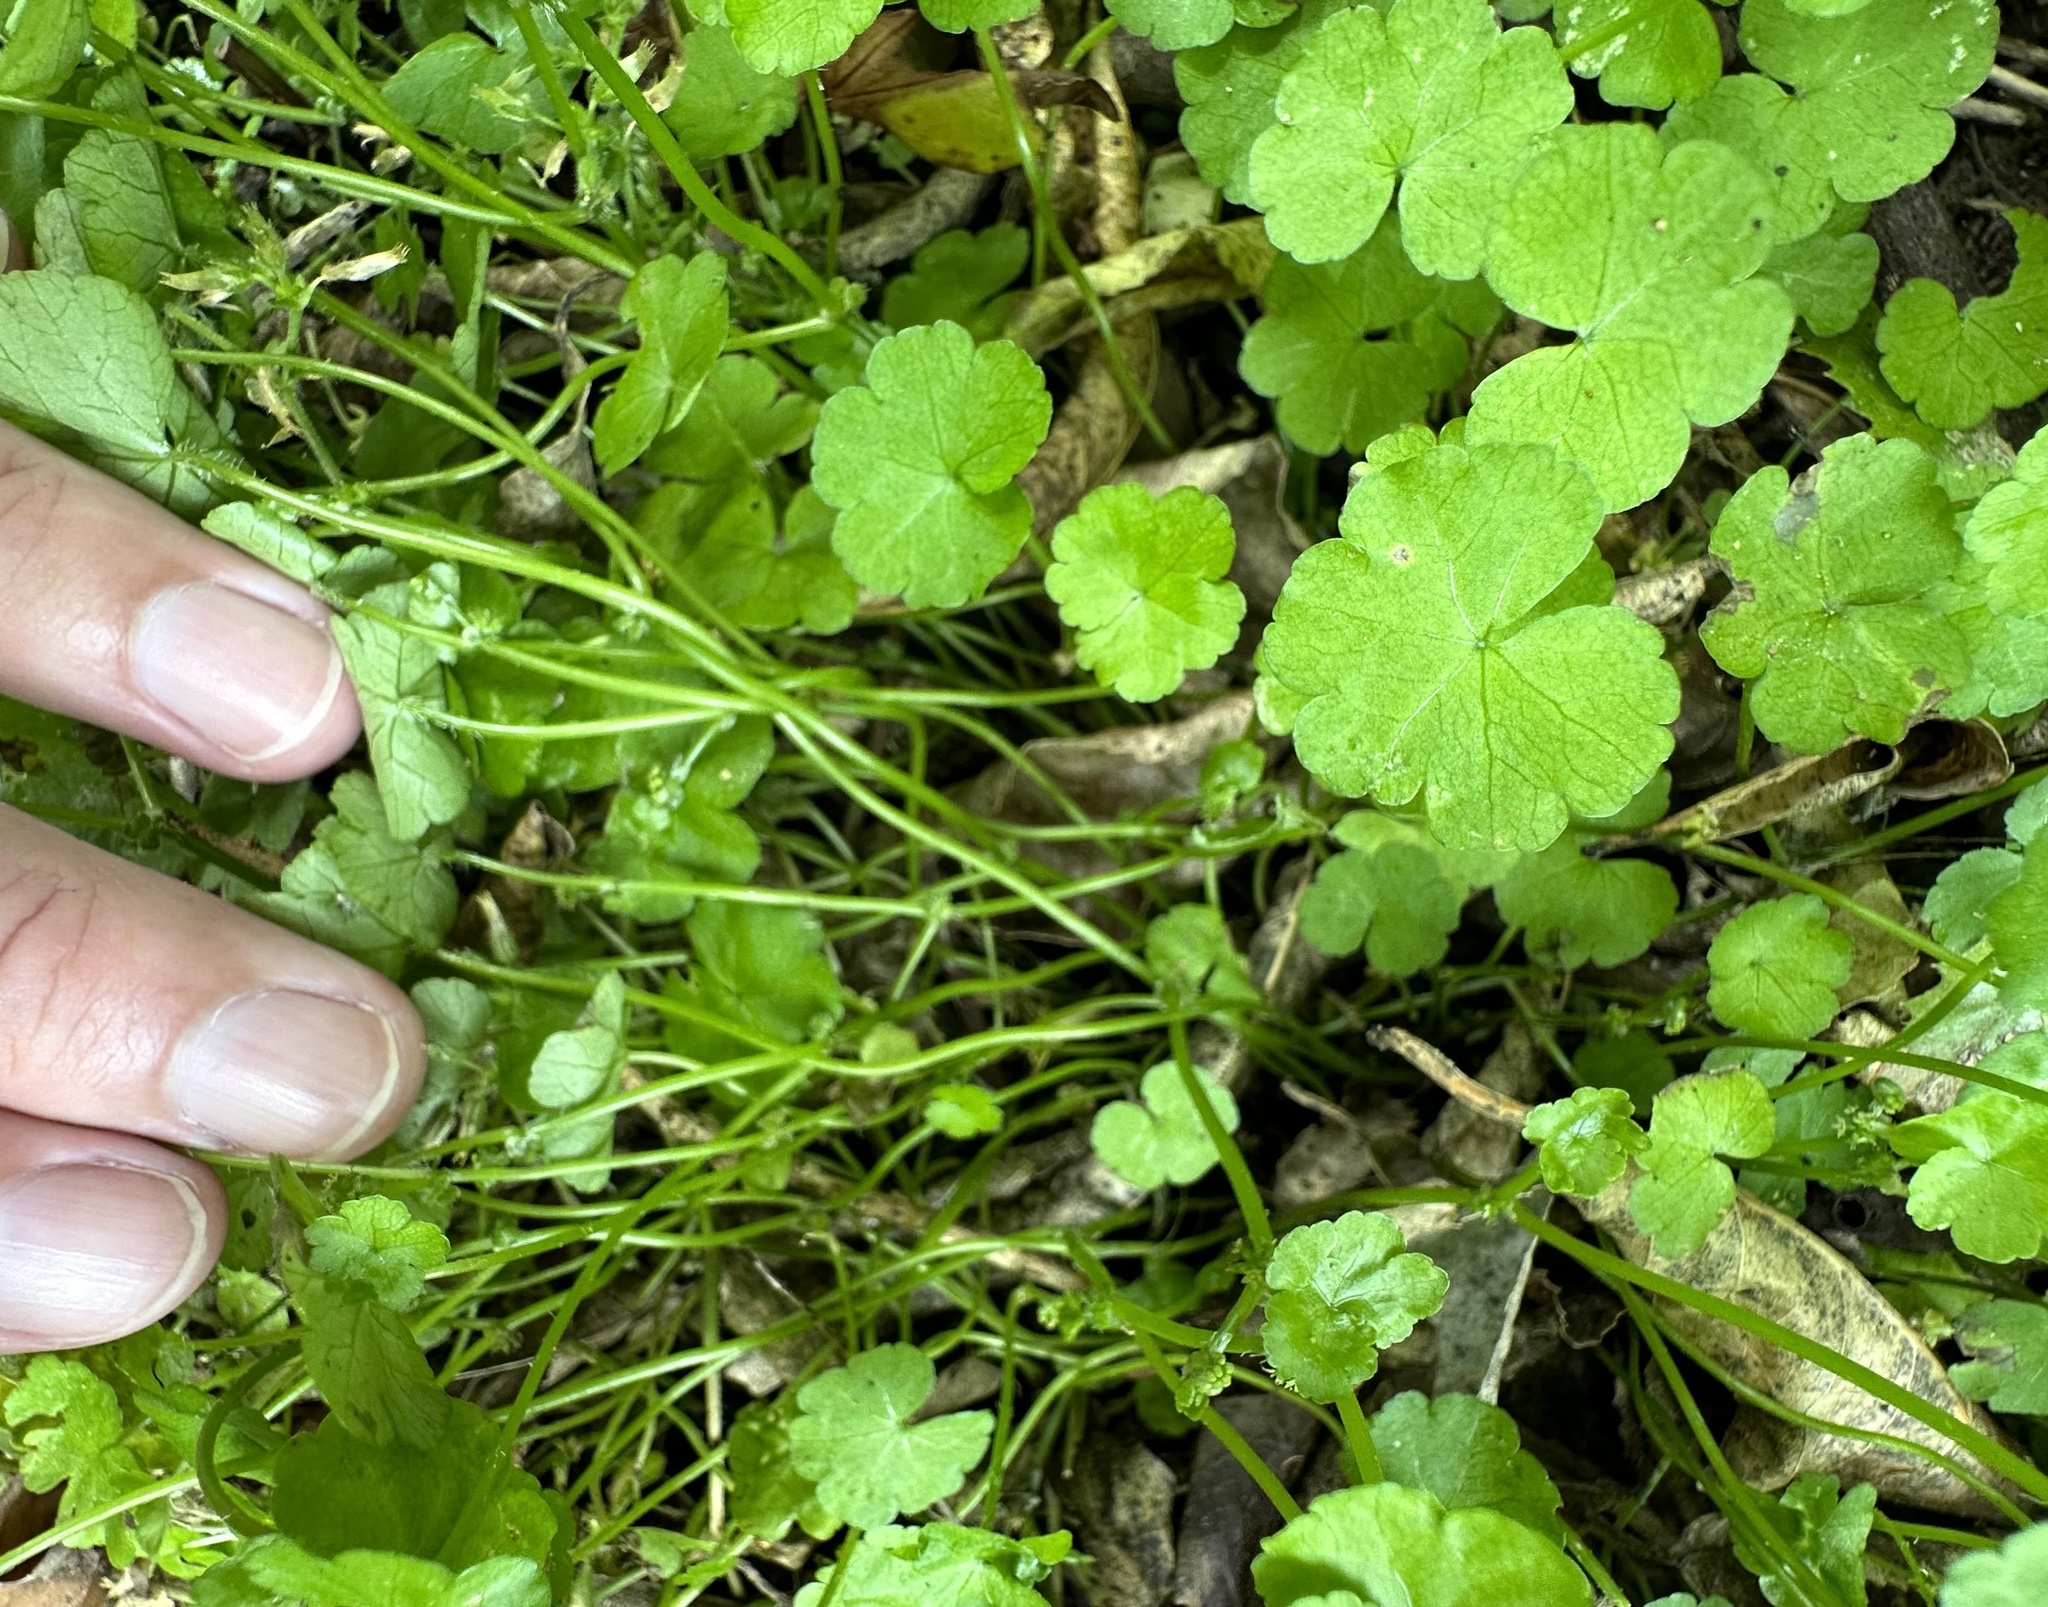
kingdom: Plantae
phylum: Tracheophyta
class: Magnoliopsida
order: Apiales
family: Araliaceae
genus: Hydrocotyle
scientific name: Hydrocotyle heteromeria
